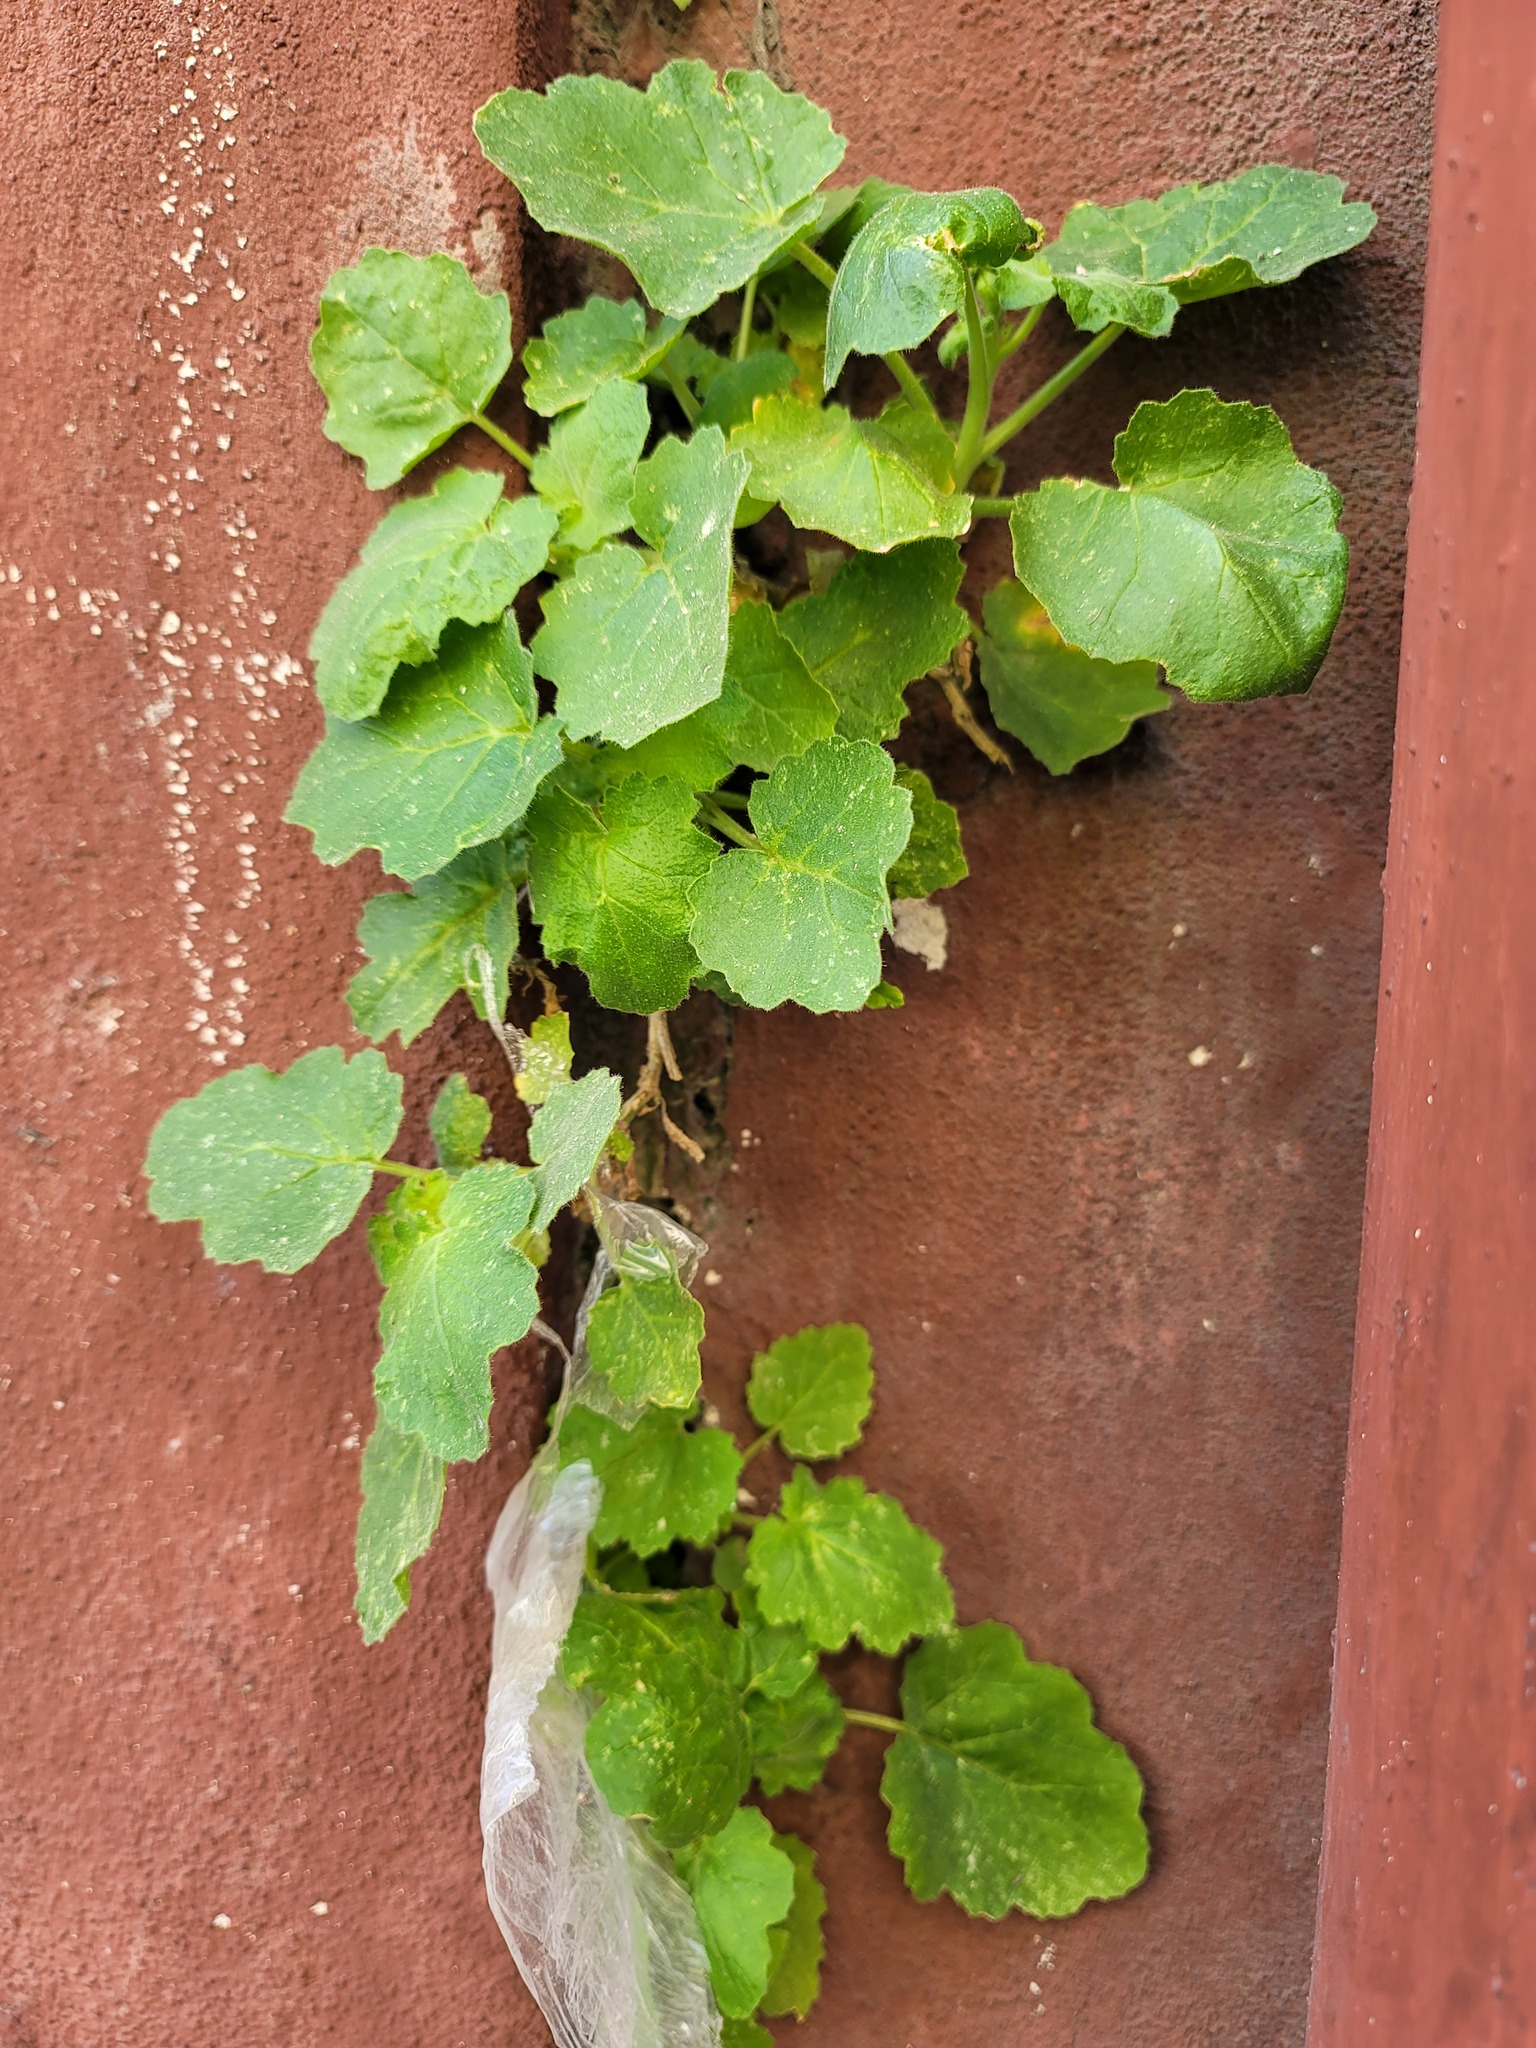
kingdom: Plantae
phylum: Tracheophyta
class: Magnoliopsida
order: Cornales
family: Loasaceae
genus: Eucnide
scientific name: Eucnide lobata
